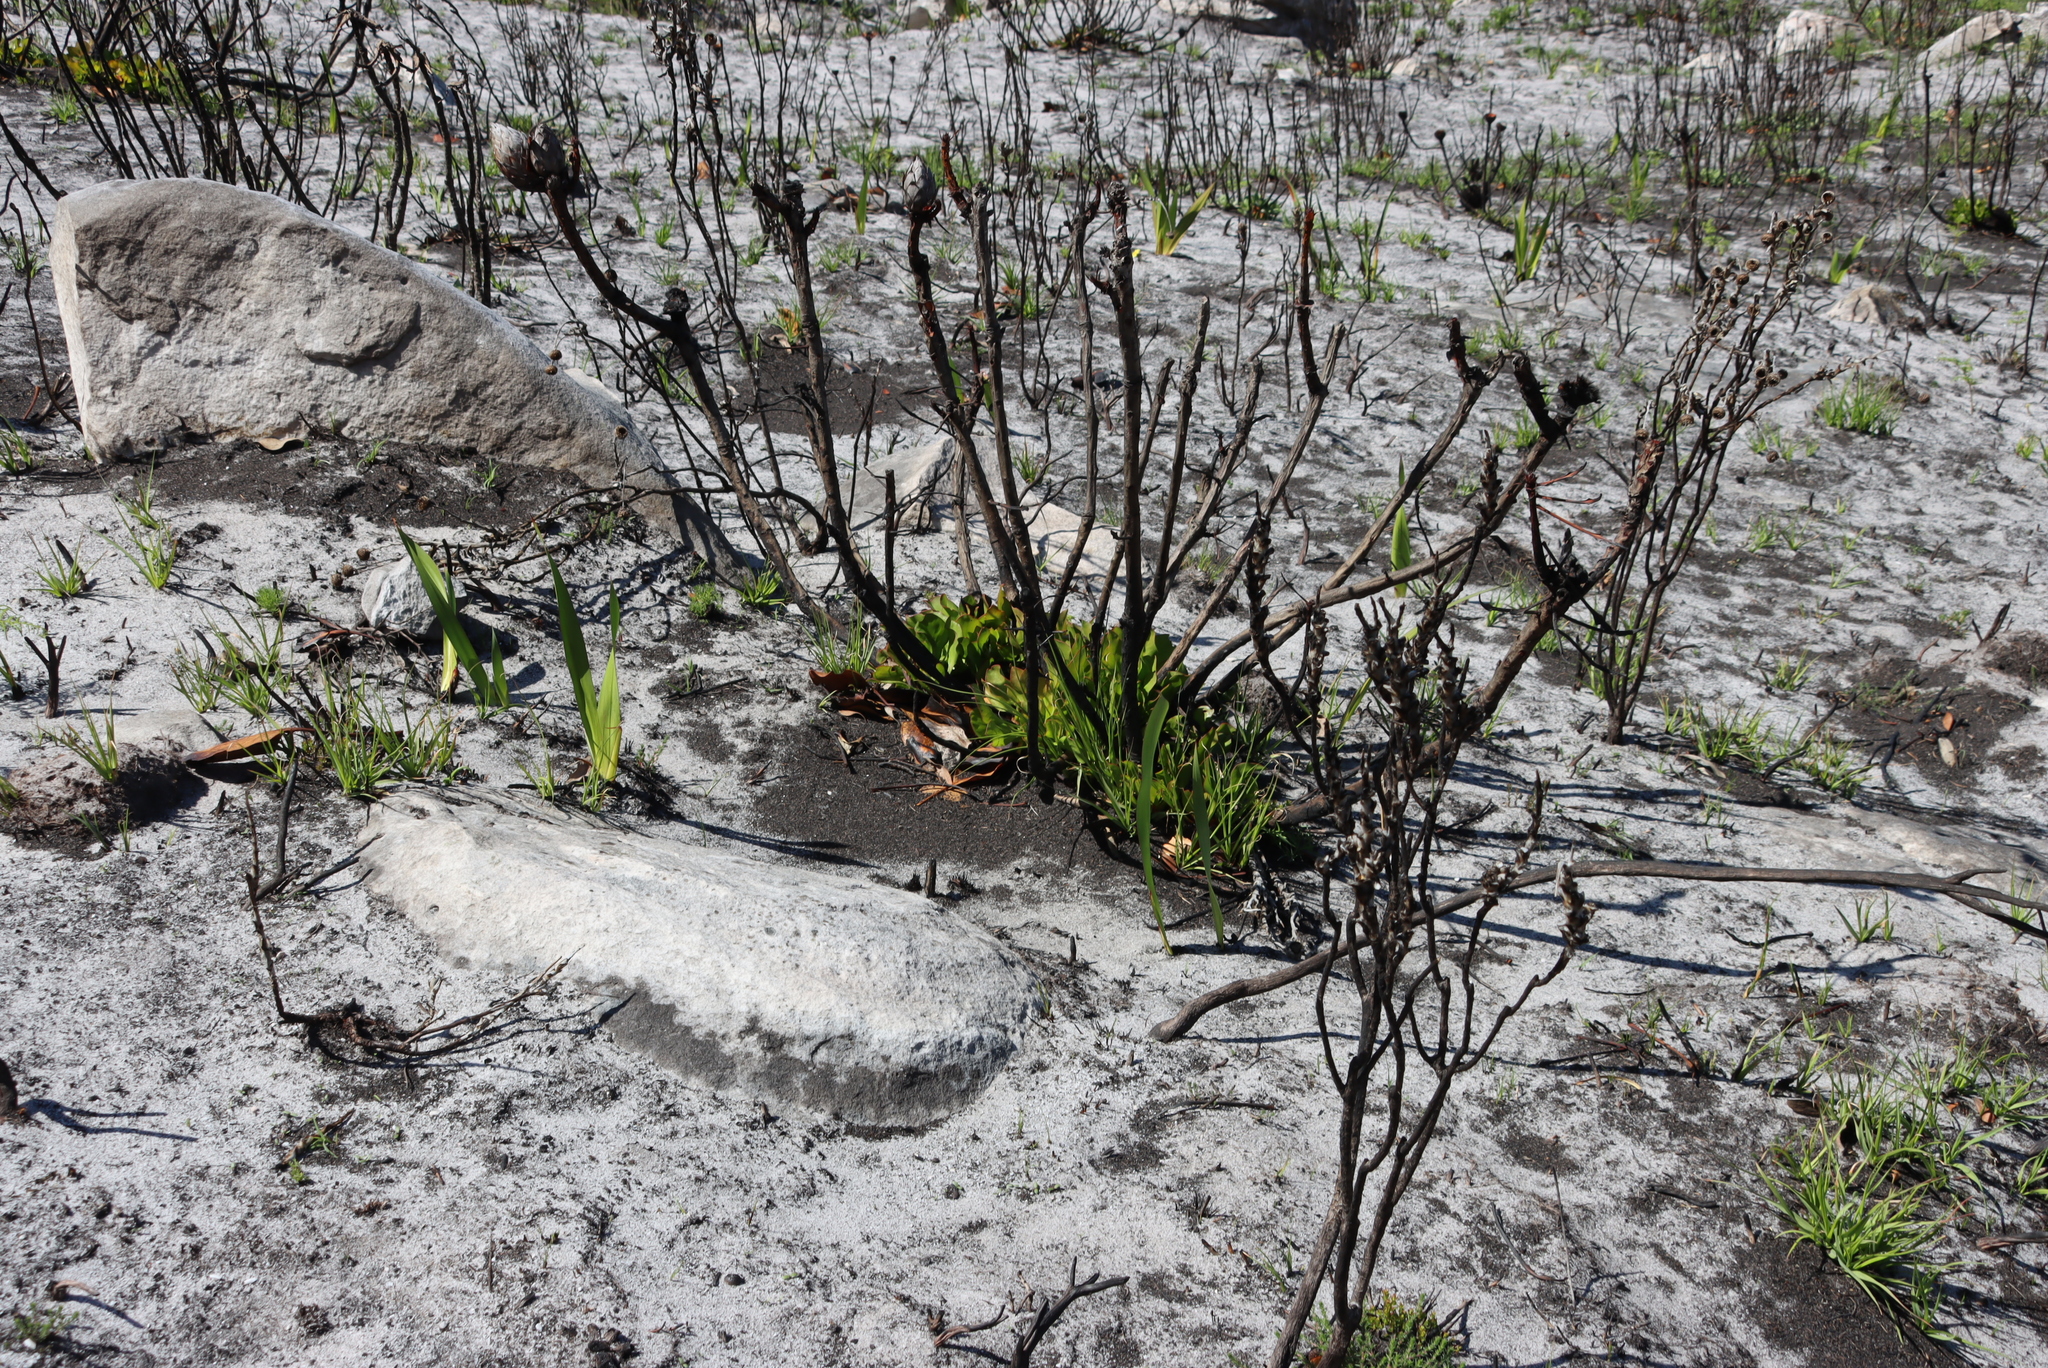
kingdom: Plantae
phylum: Tracheophyta
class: Magnoliopsida
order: Proteales
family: Proteaceae
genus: Protea
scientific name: Protea cynaroides
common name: King protea
